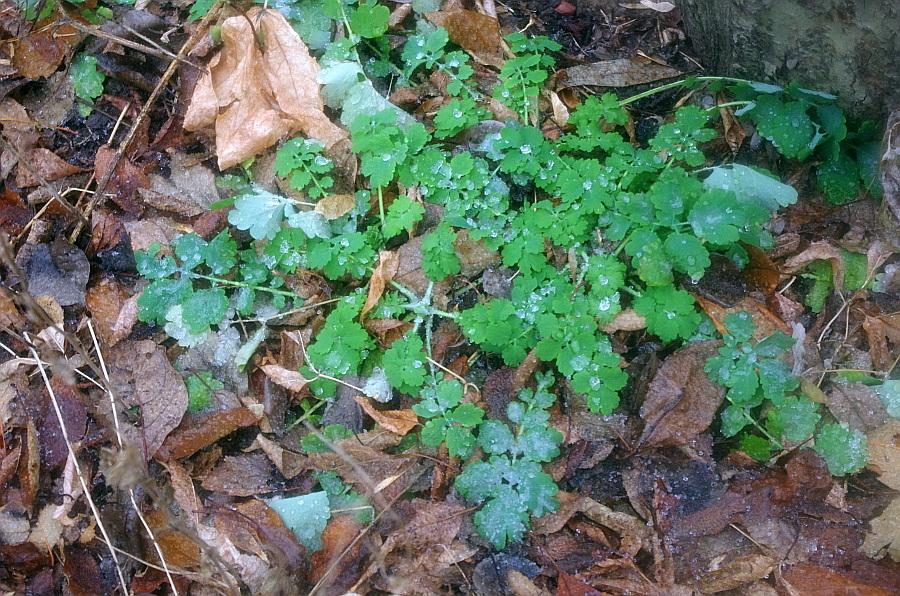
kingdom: Plantae
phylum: Tracheophyta
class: Magnoliopsida
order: Ranunculales
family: Papaveraceae
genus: Chelidonium
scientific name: Chelidonium majus
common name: Greater celandine
